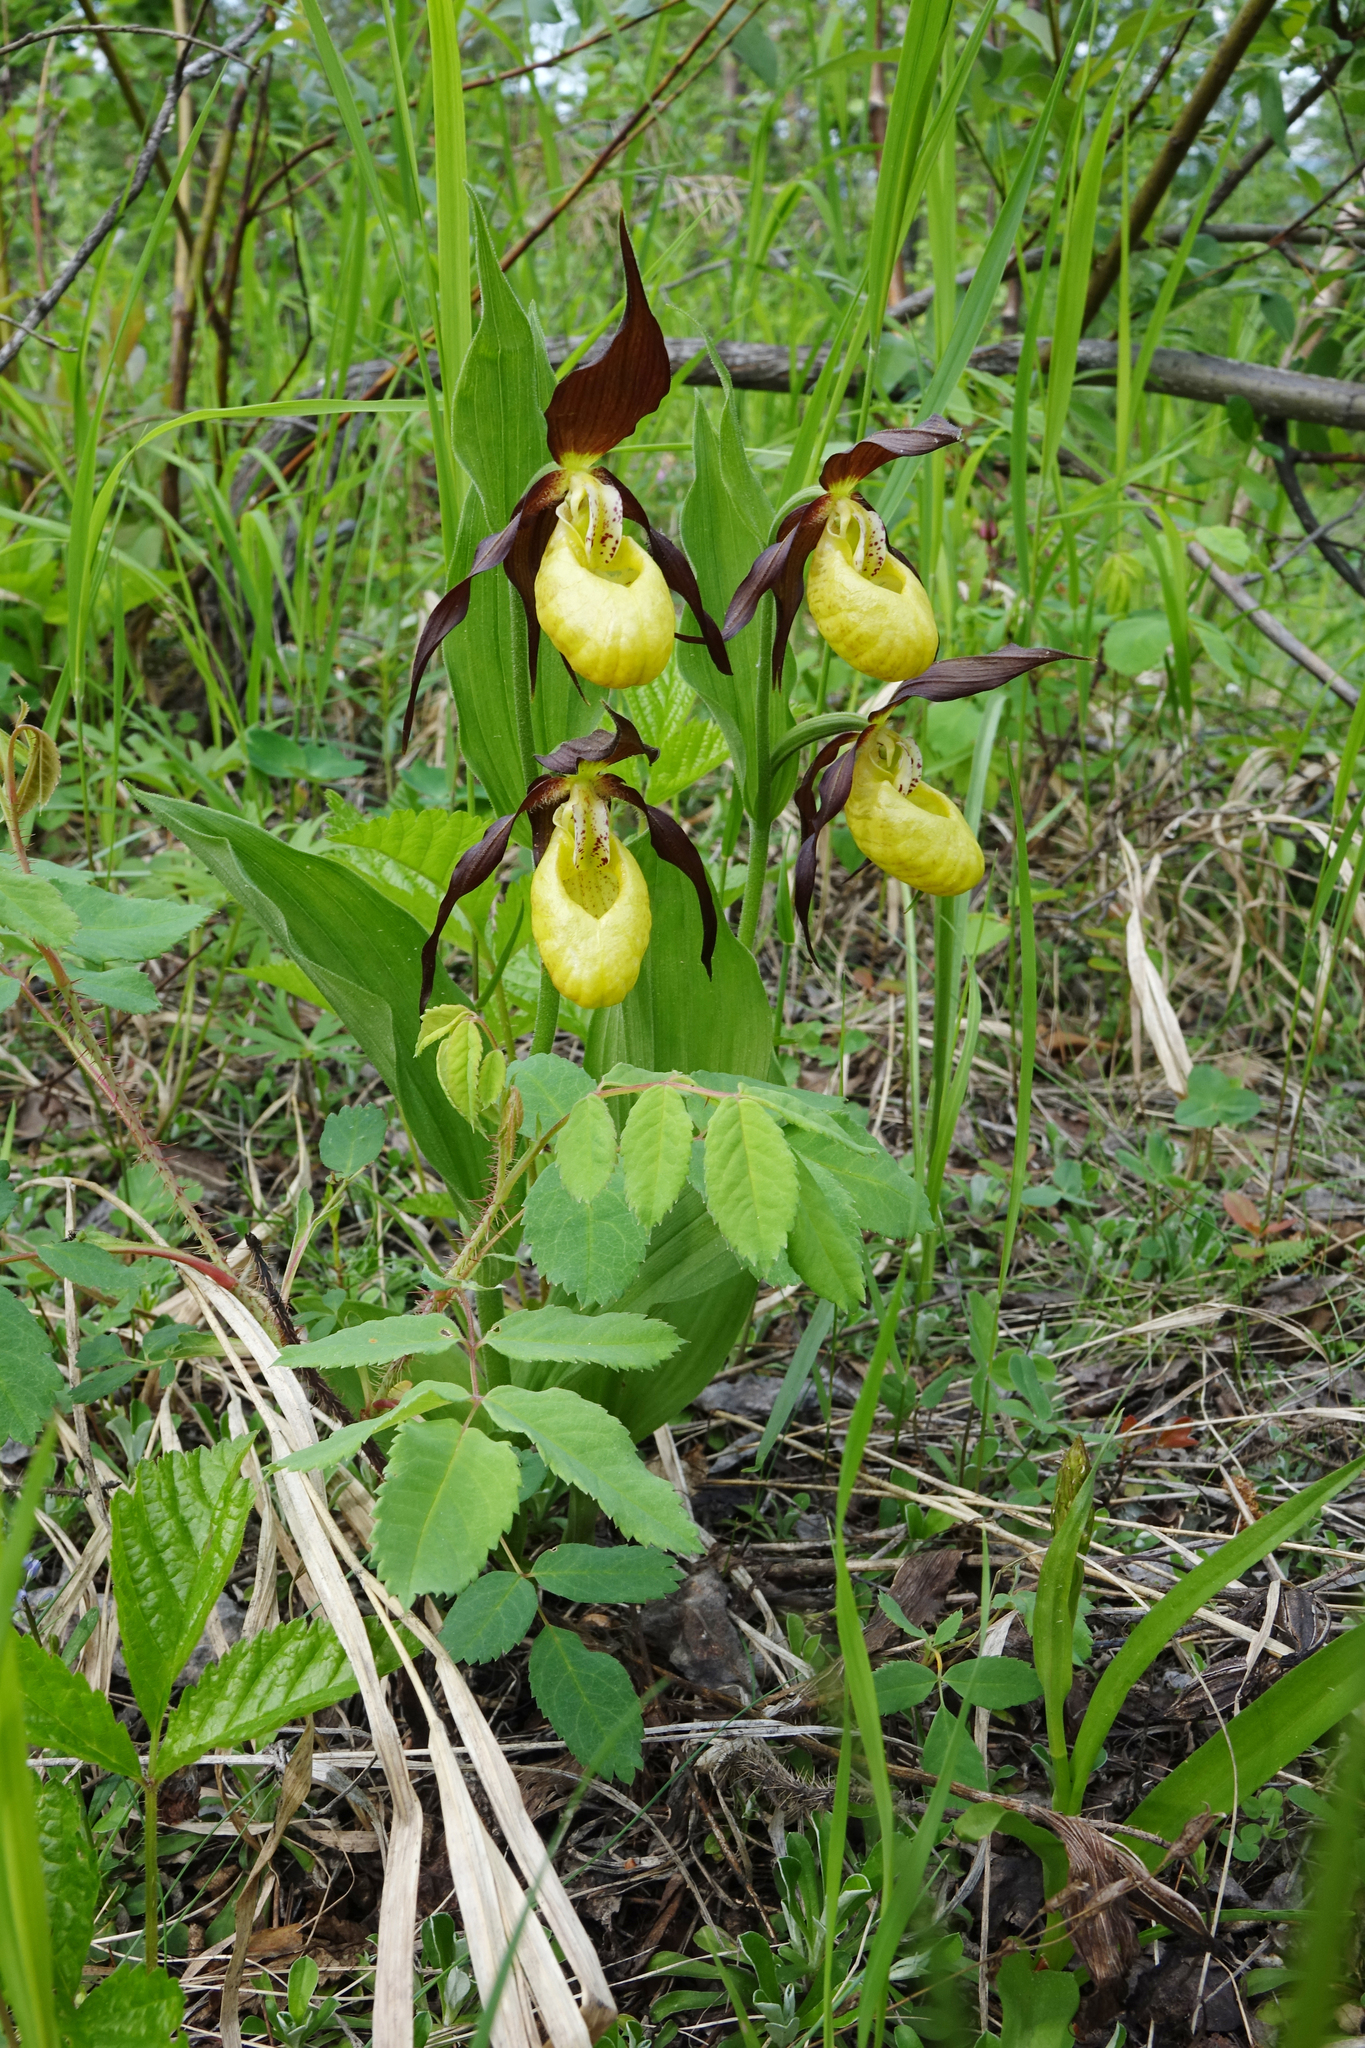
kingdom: Plantae
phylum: Tracheophyta
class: Liliopsida
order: Asparagales
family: Orchidaceae
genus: Cypripedium
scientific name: Cypripedium calceolus
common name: Lady's-slipper
